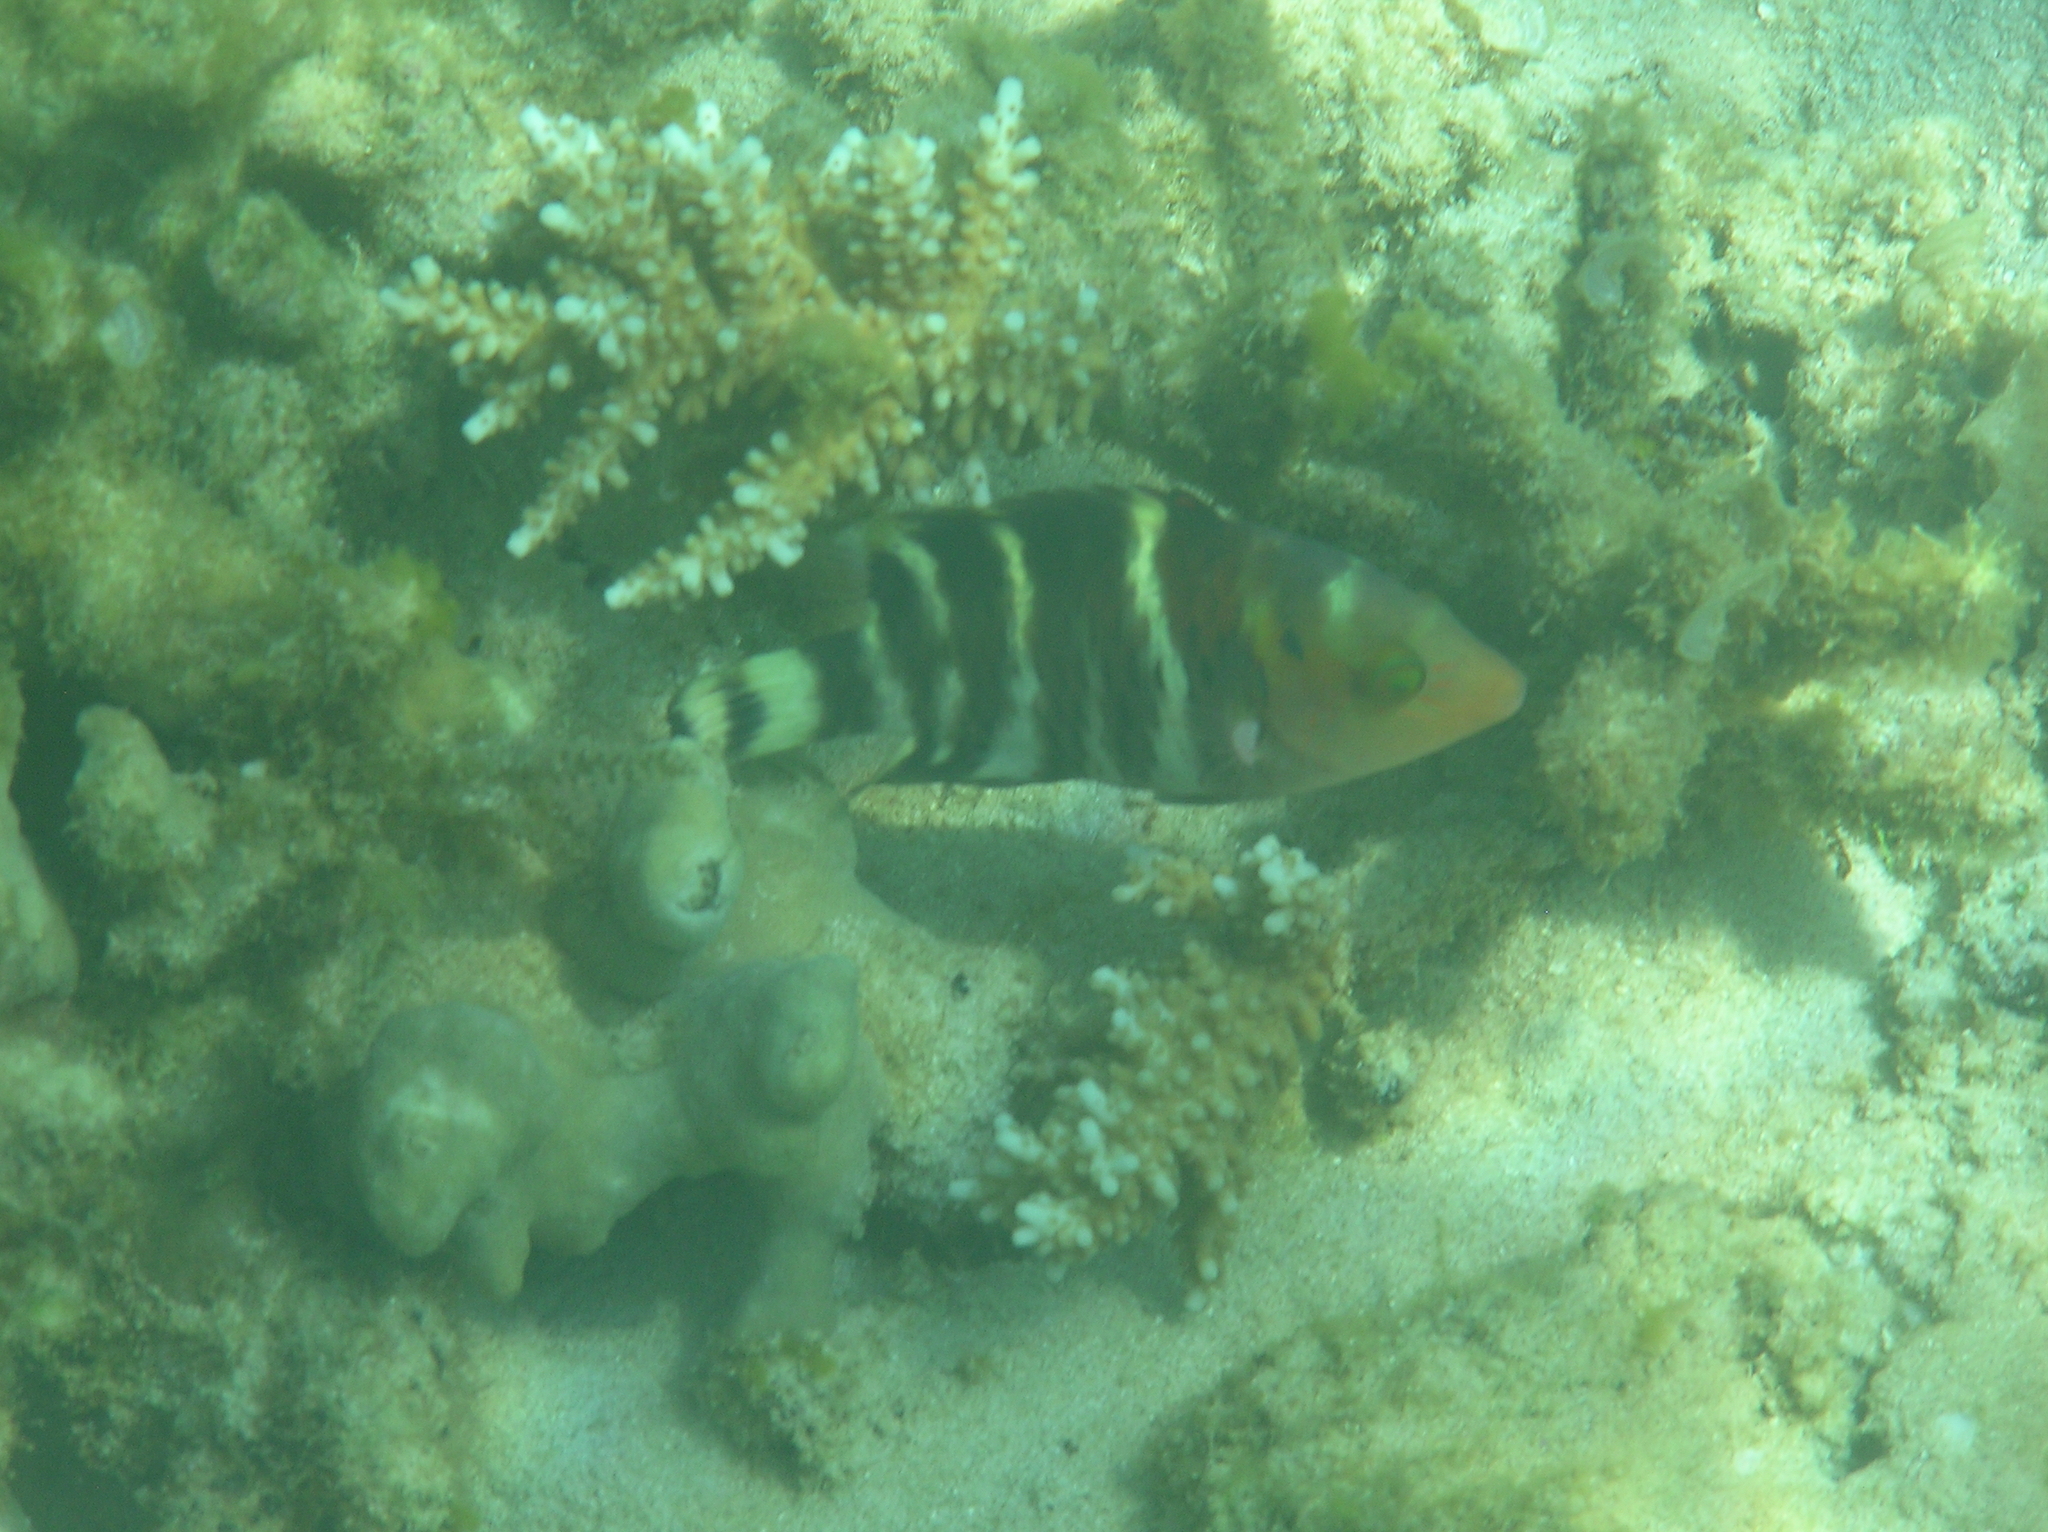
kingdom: Animalia
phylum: Chordata
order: Perciformes
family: Labridae
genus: Cheilinus
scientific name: Cheilinus fasciatus
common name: Red-breasted wrasse
